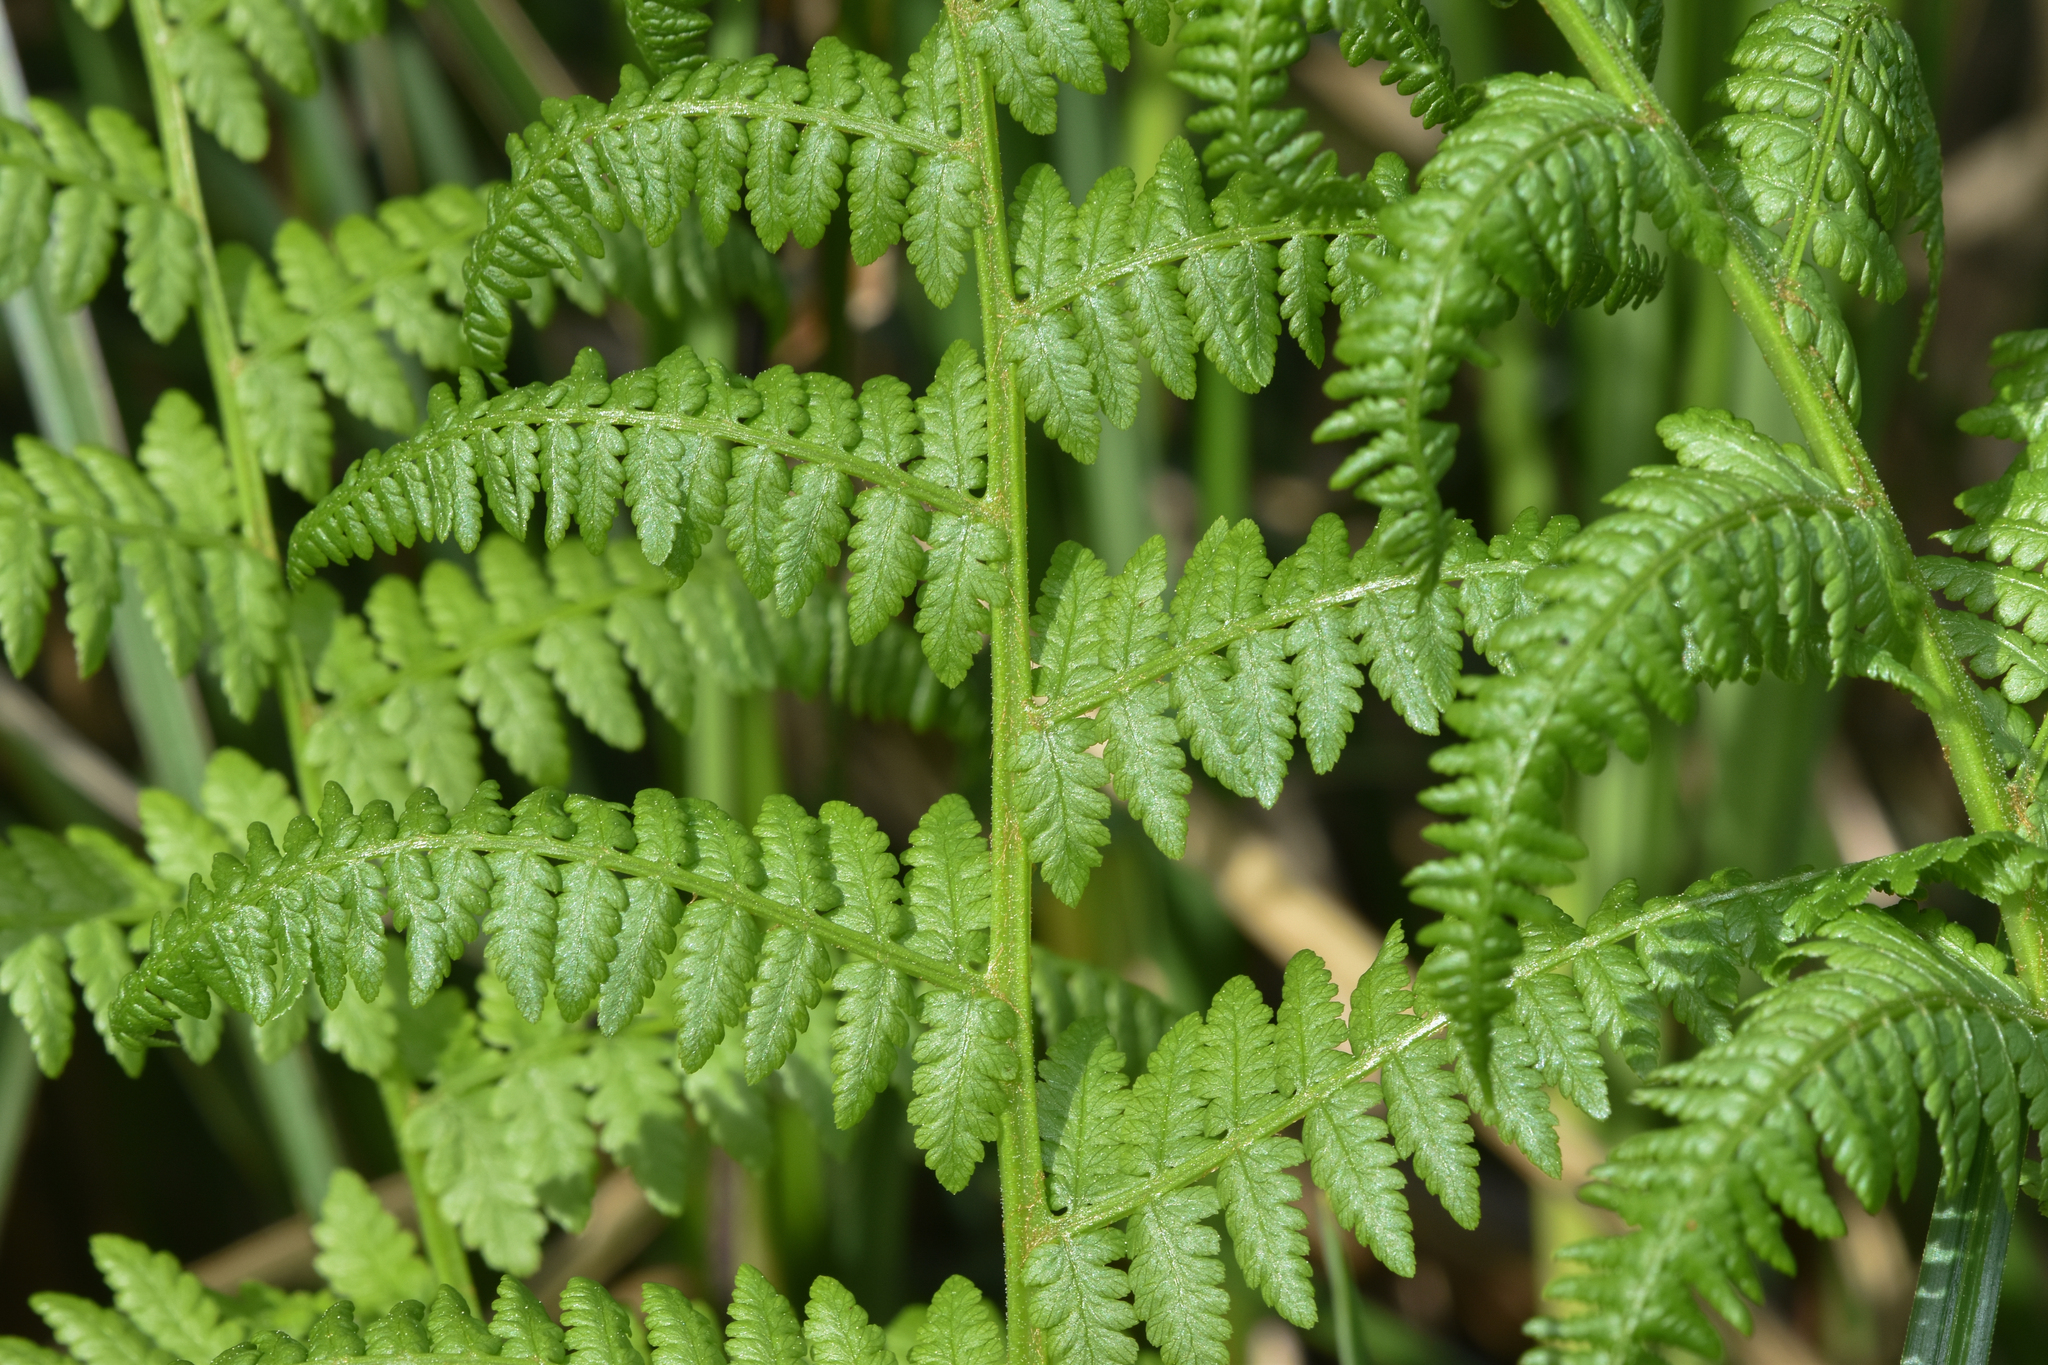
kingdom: Plantae
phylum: Tracheophyta
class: Polypodiopsida
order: Polypodiales
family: Athyriaceae
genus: Athyrium
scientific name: Athyrium cyclosorum
